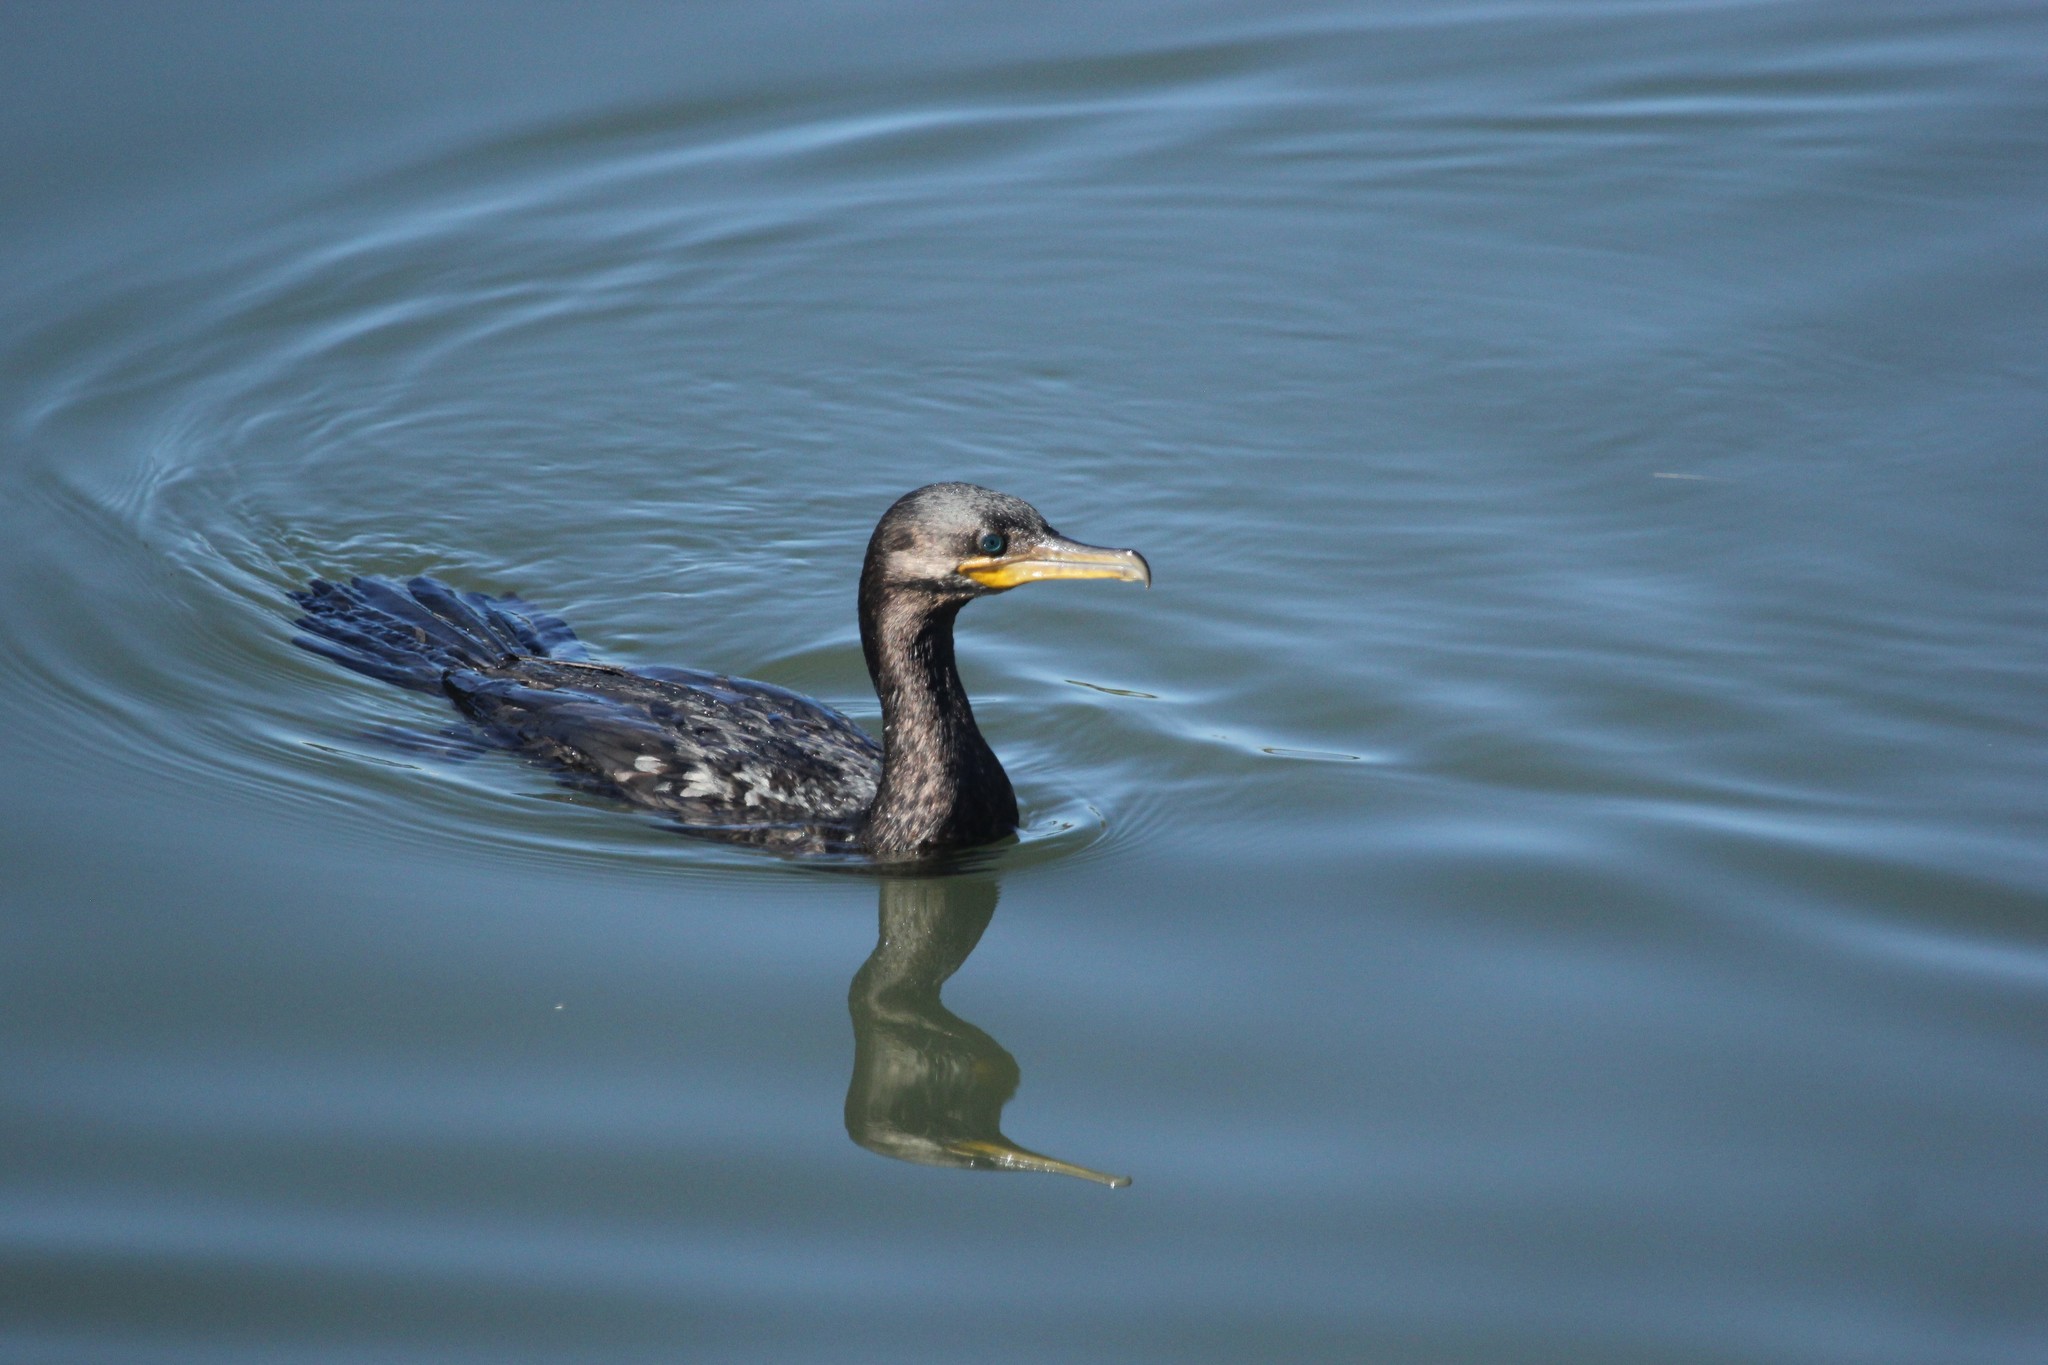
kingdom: Animalia
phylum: Chordata
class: Aves
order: Suliformes
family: Phalacrocoracidae
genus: Phalacrocorax
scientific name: Phalacrocorax brasilianus
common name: Neotropic cormorant
